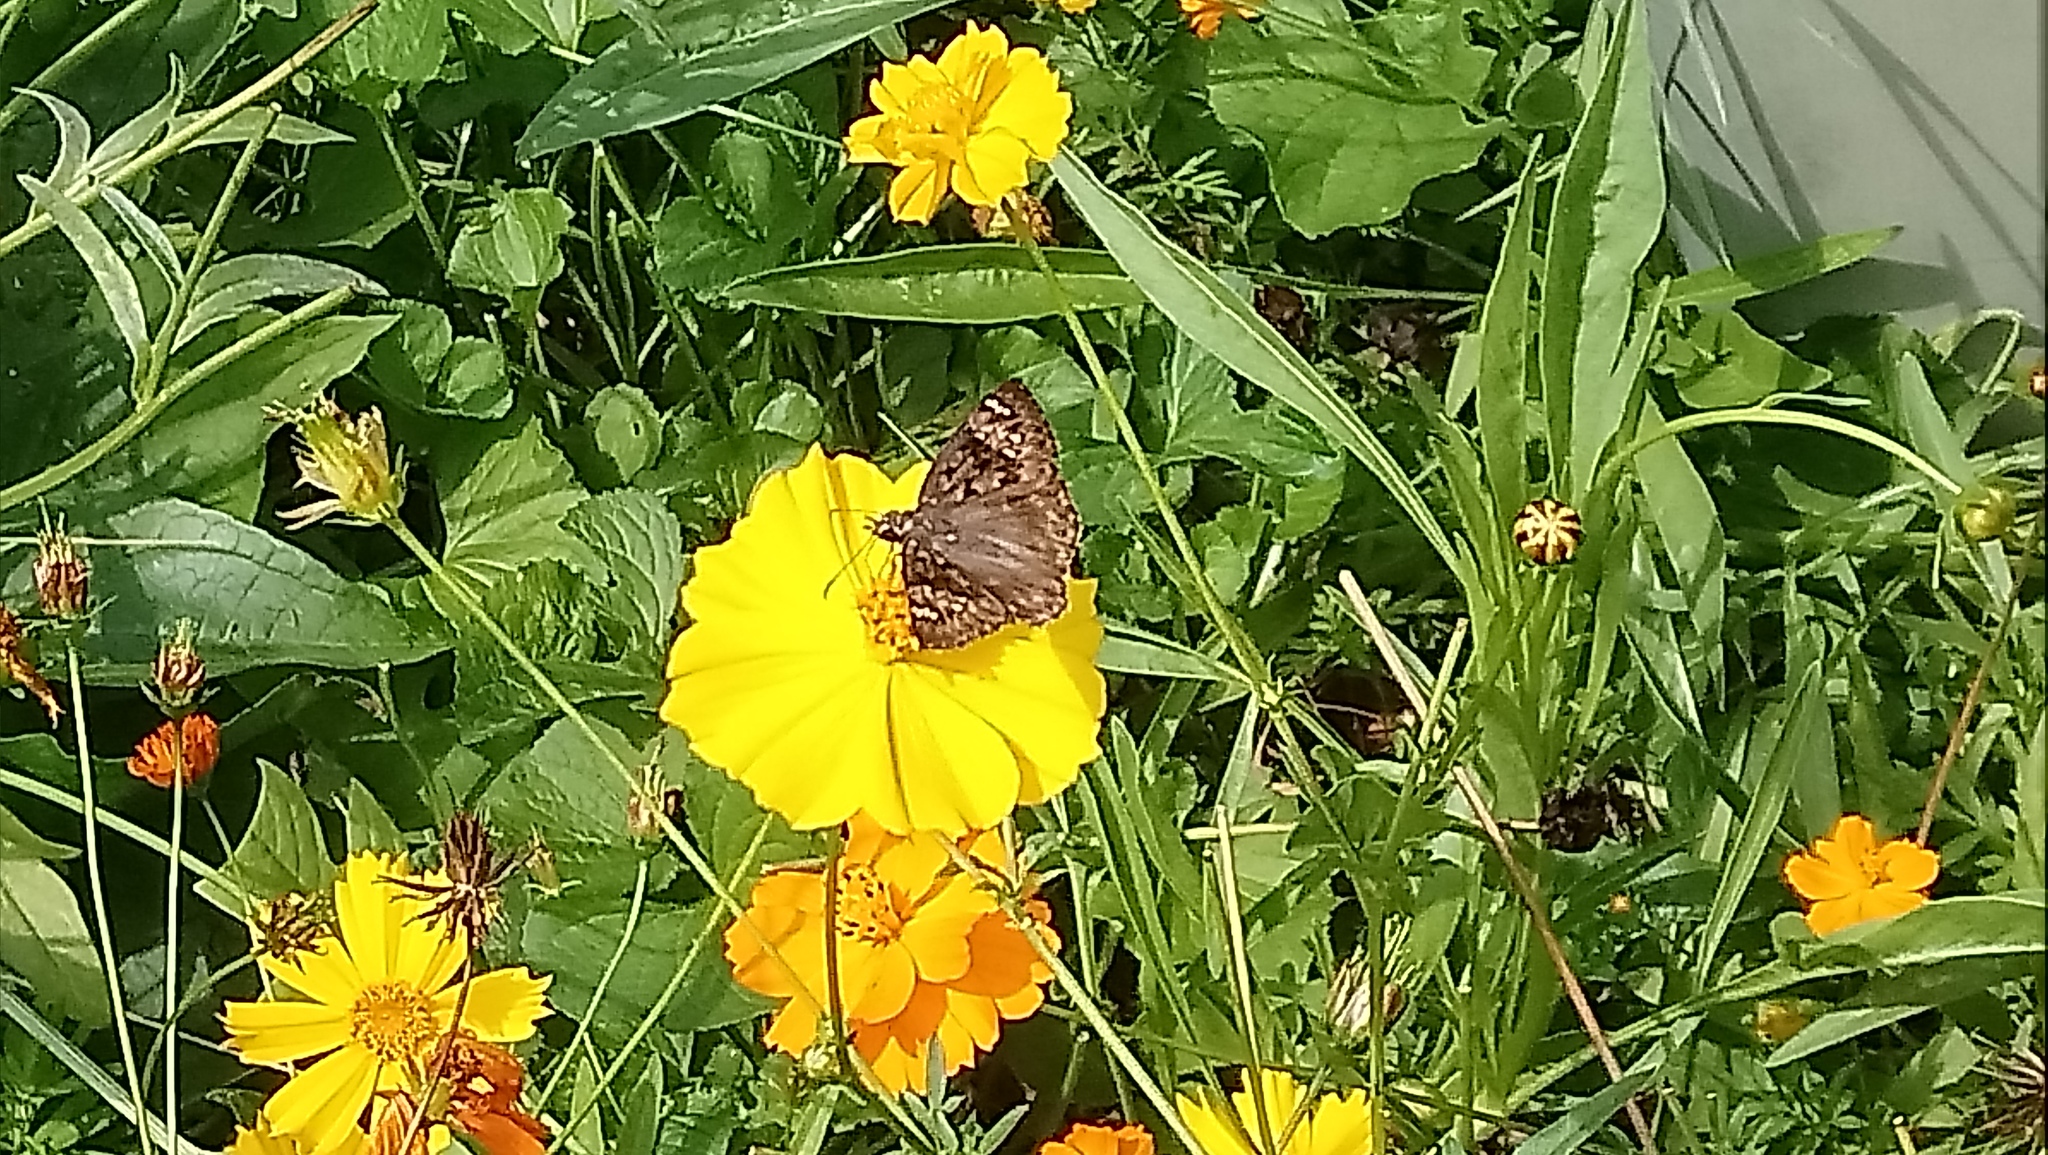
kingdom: Animalia
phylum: Arthropoda
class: Insecta
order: Lepidoptera
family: Hesperiidae
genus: Erynnis
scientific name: Erynnis horatius
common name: Horace's duskywing
